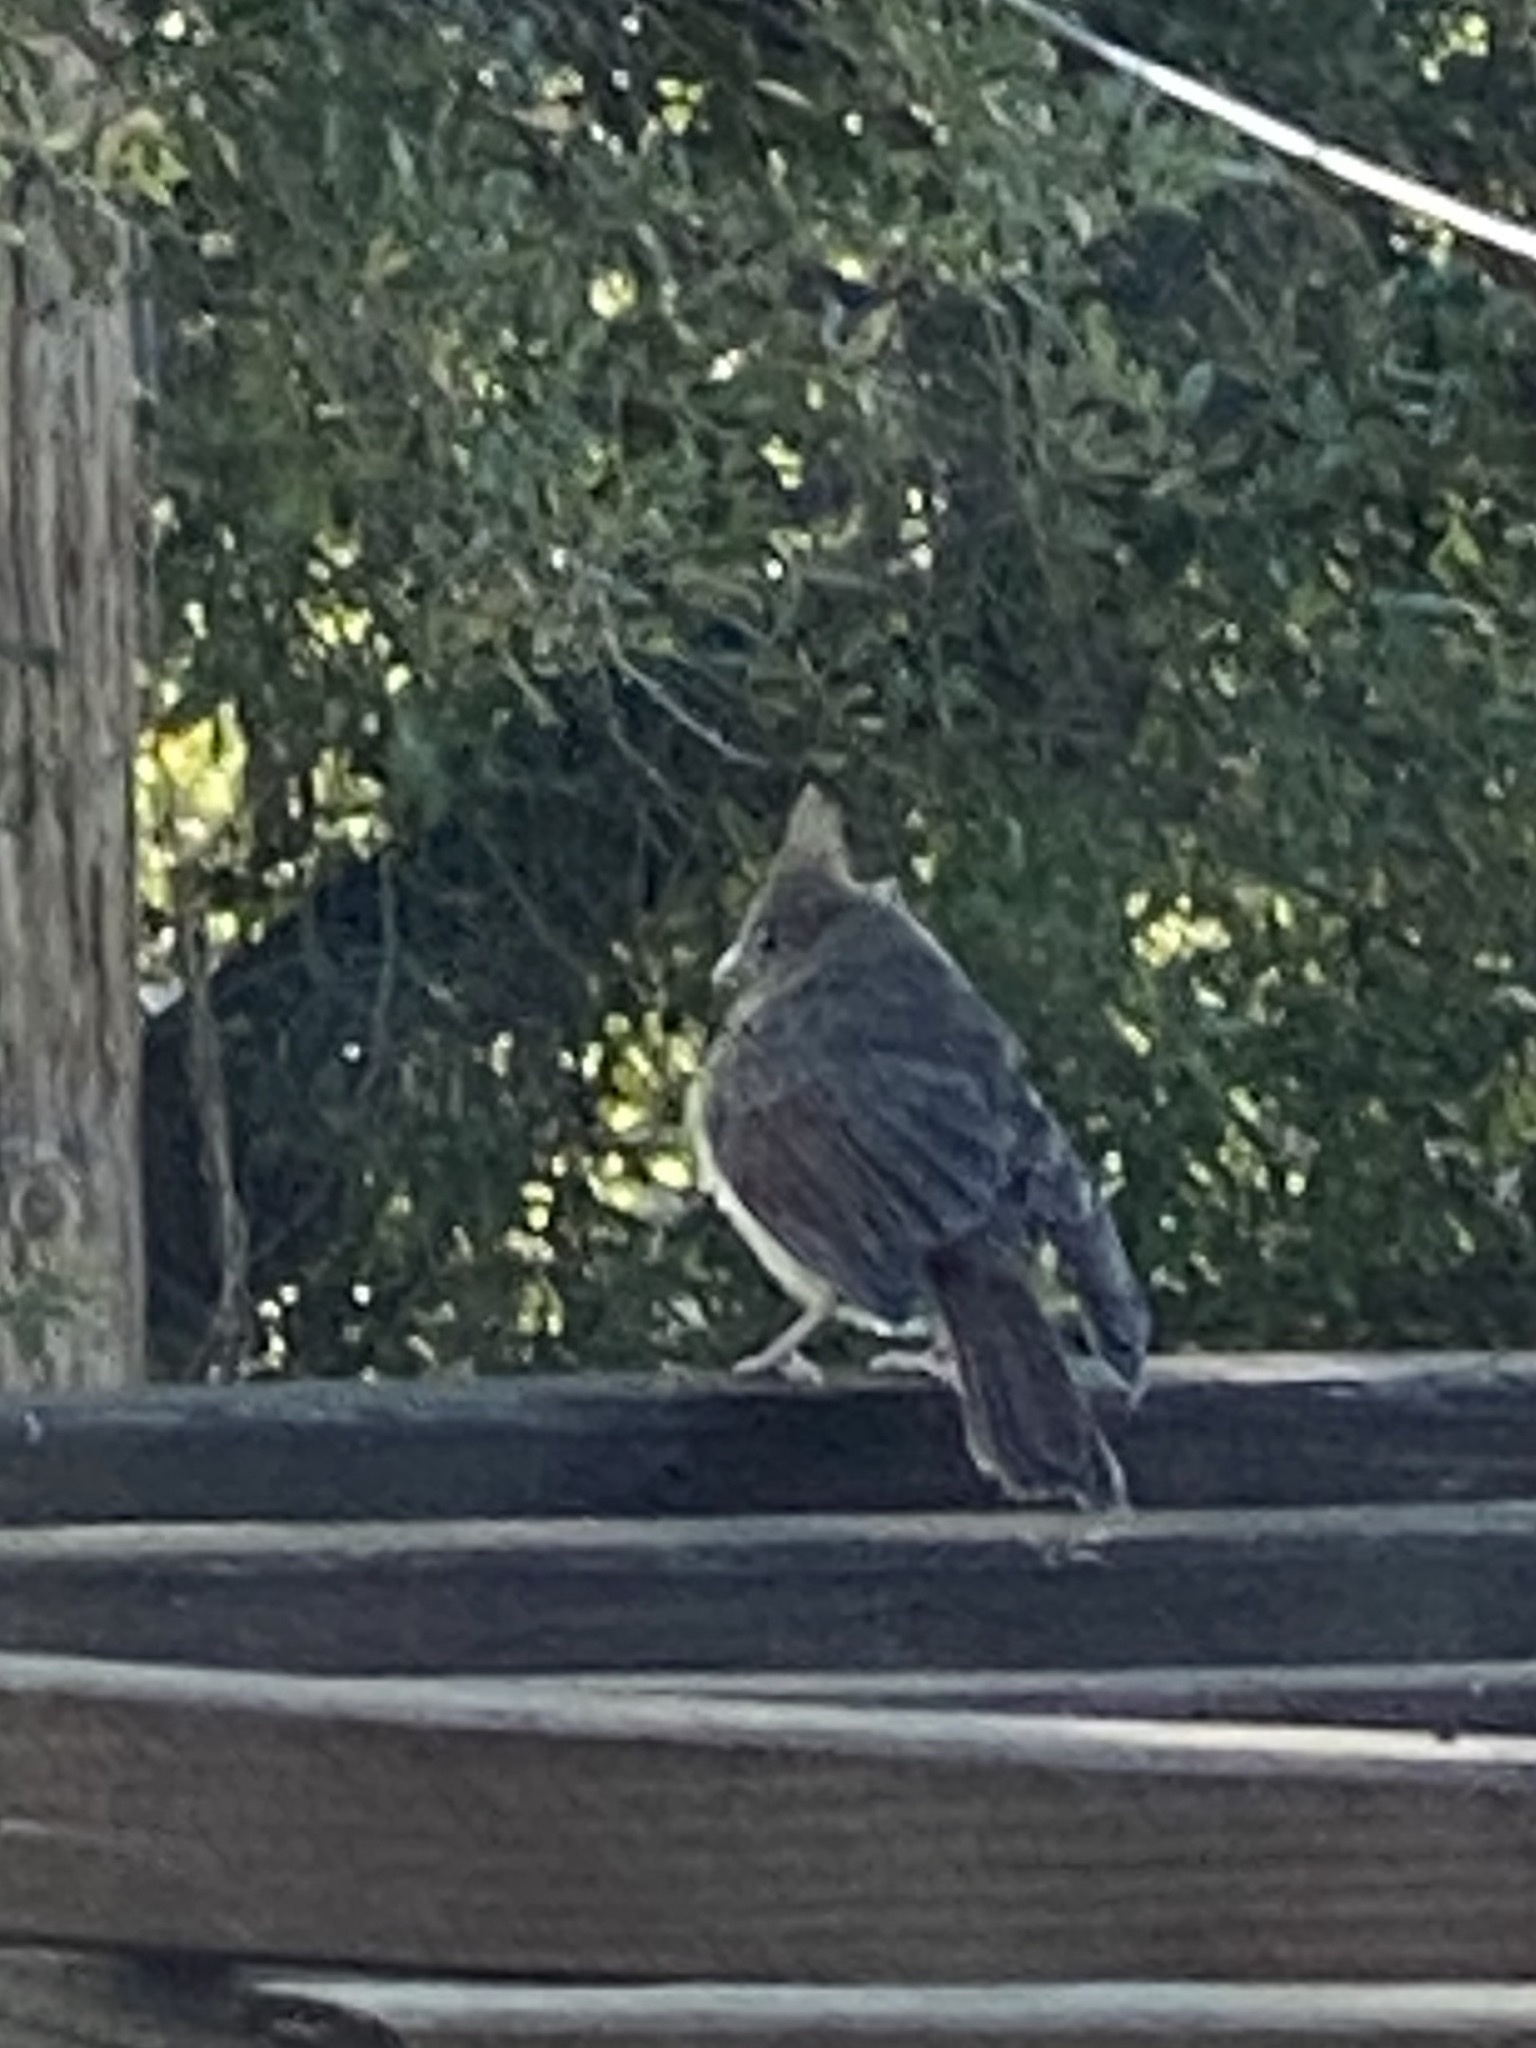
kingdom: Animalia
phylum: Chordata
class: Aves
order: Passeriformes
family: Cardinalidae
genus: Cardinalis
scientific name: Cardinalis cardinalis
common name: Northern cardinal
